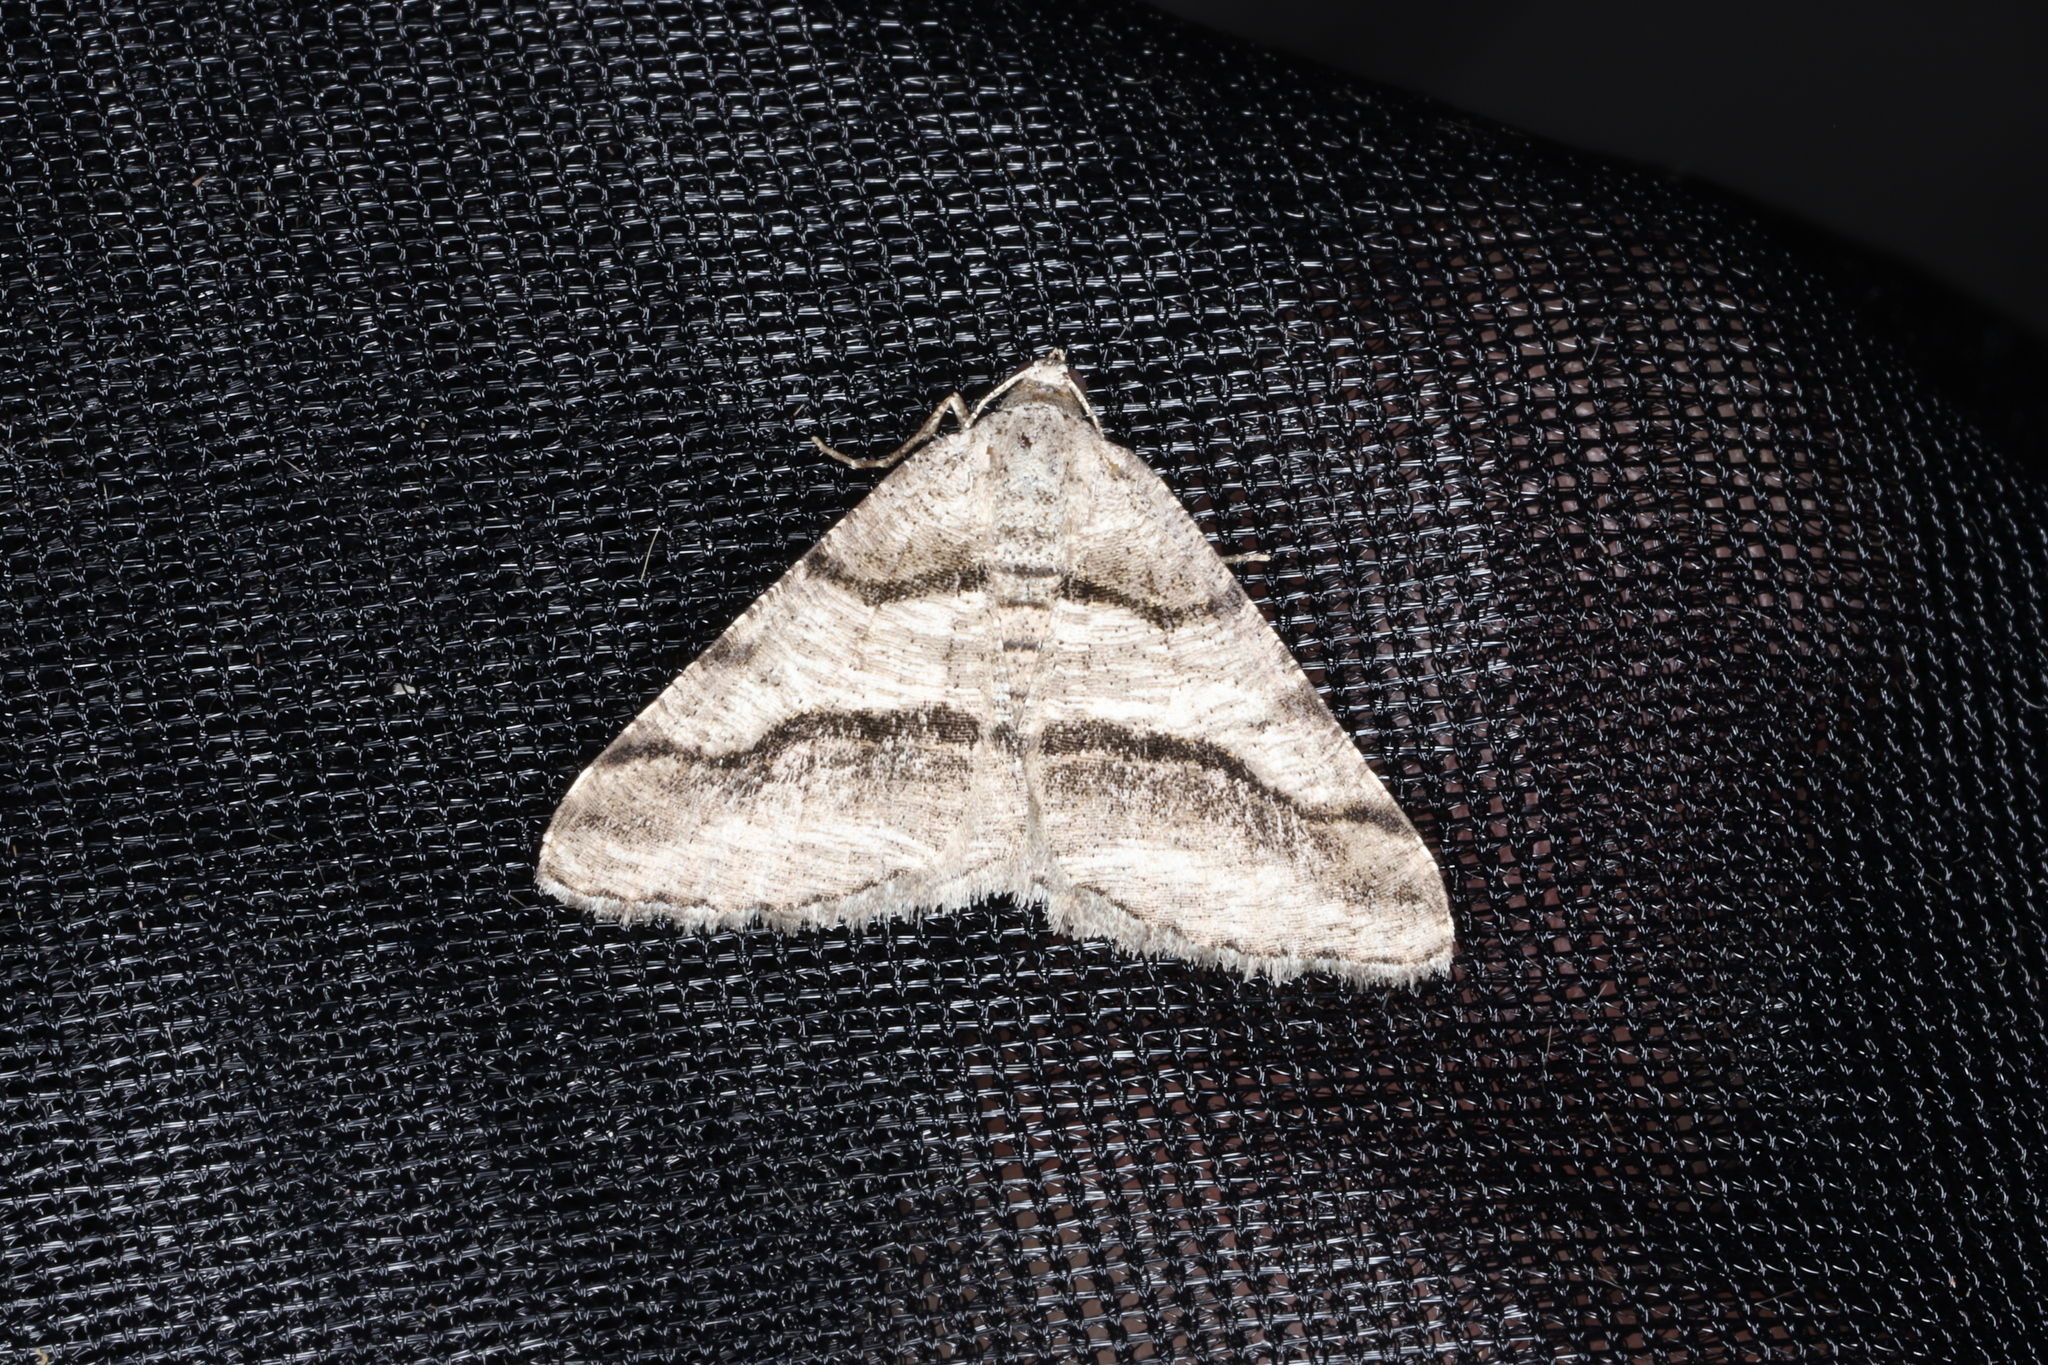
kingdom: Animalia
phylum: Arthropoda
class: Insecta
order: Lepidoptera
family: Geometridae
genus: Digrammia
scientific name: Digrammia continuata
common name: Curve-lined angle
